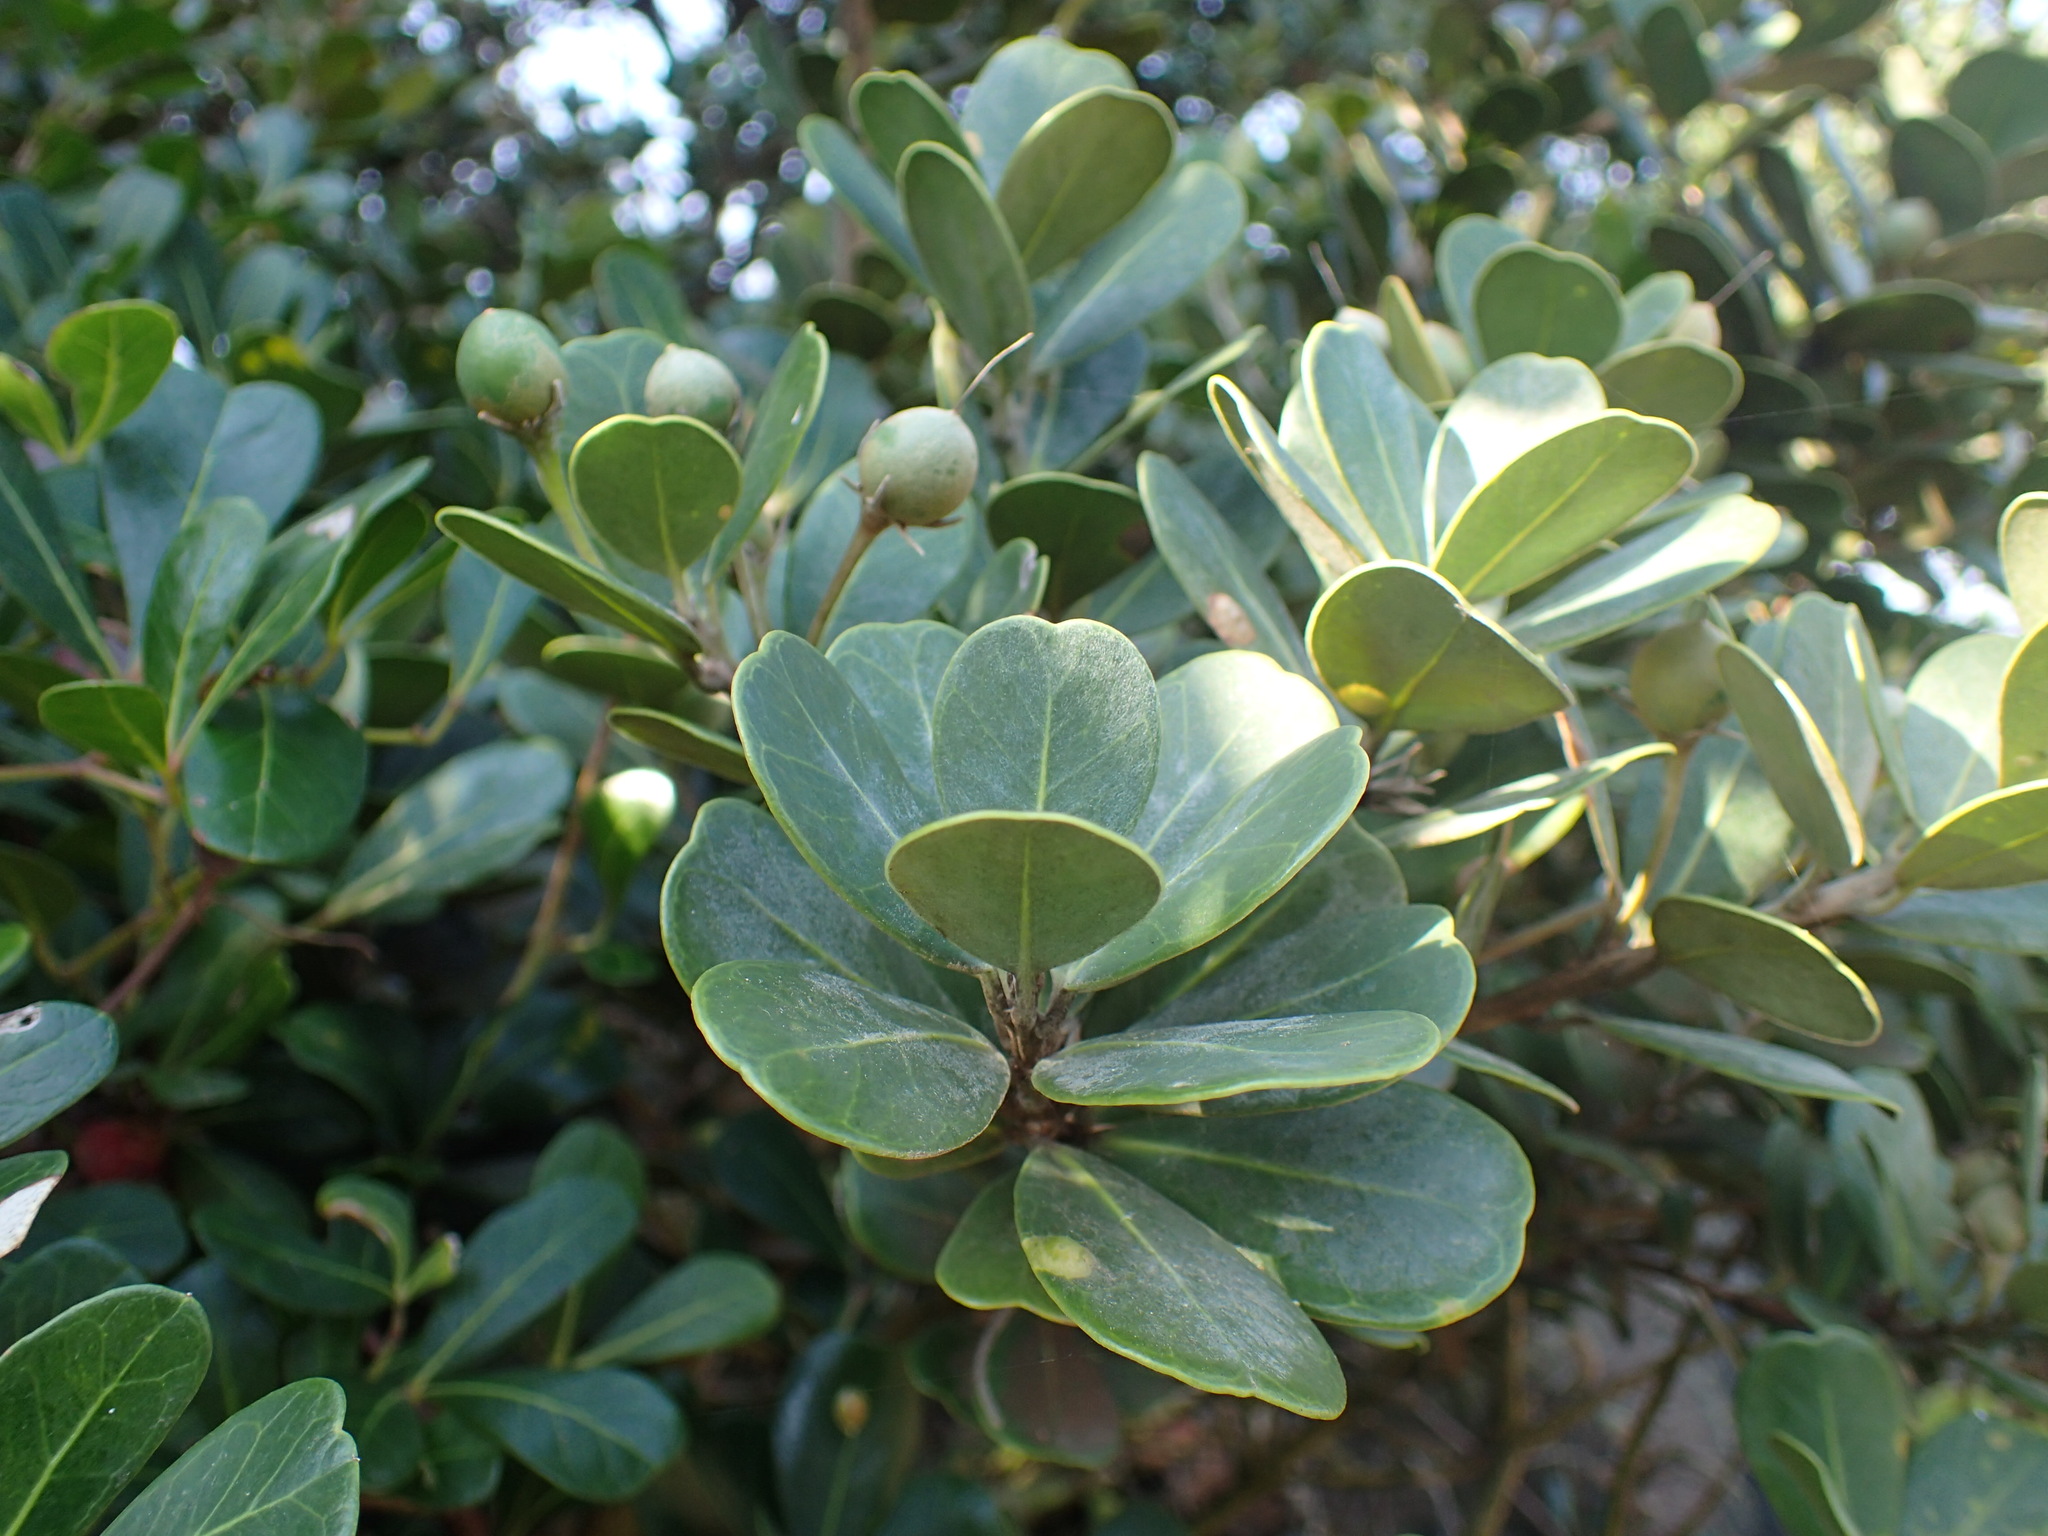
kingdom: Plantae
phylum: Tracheophyta
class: Magnoliopsida
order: Ericales
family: Sapotaceae
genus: Mimusops
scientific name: Mimusops caffra
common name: Coastal red milkwood
